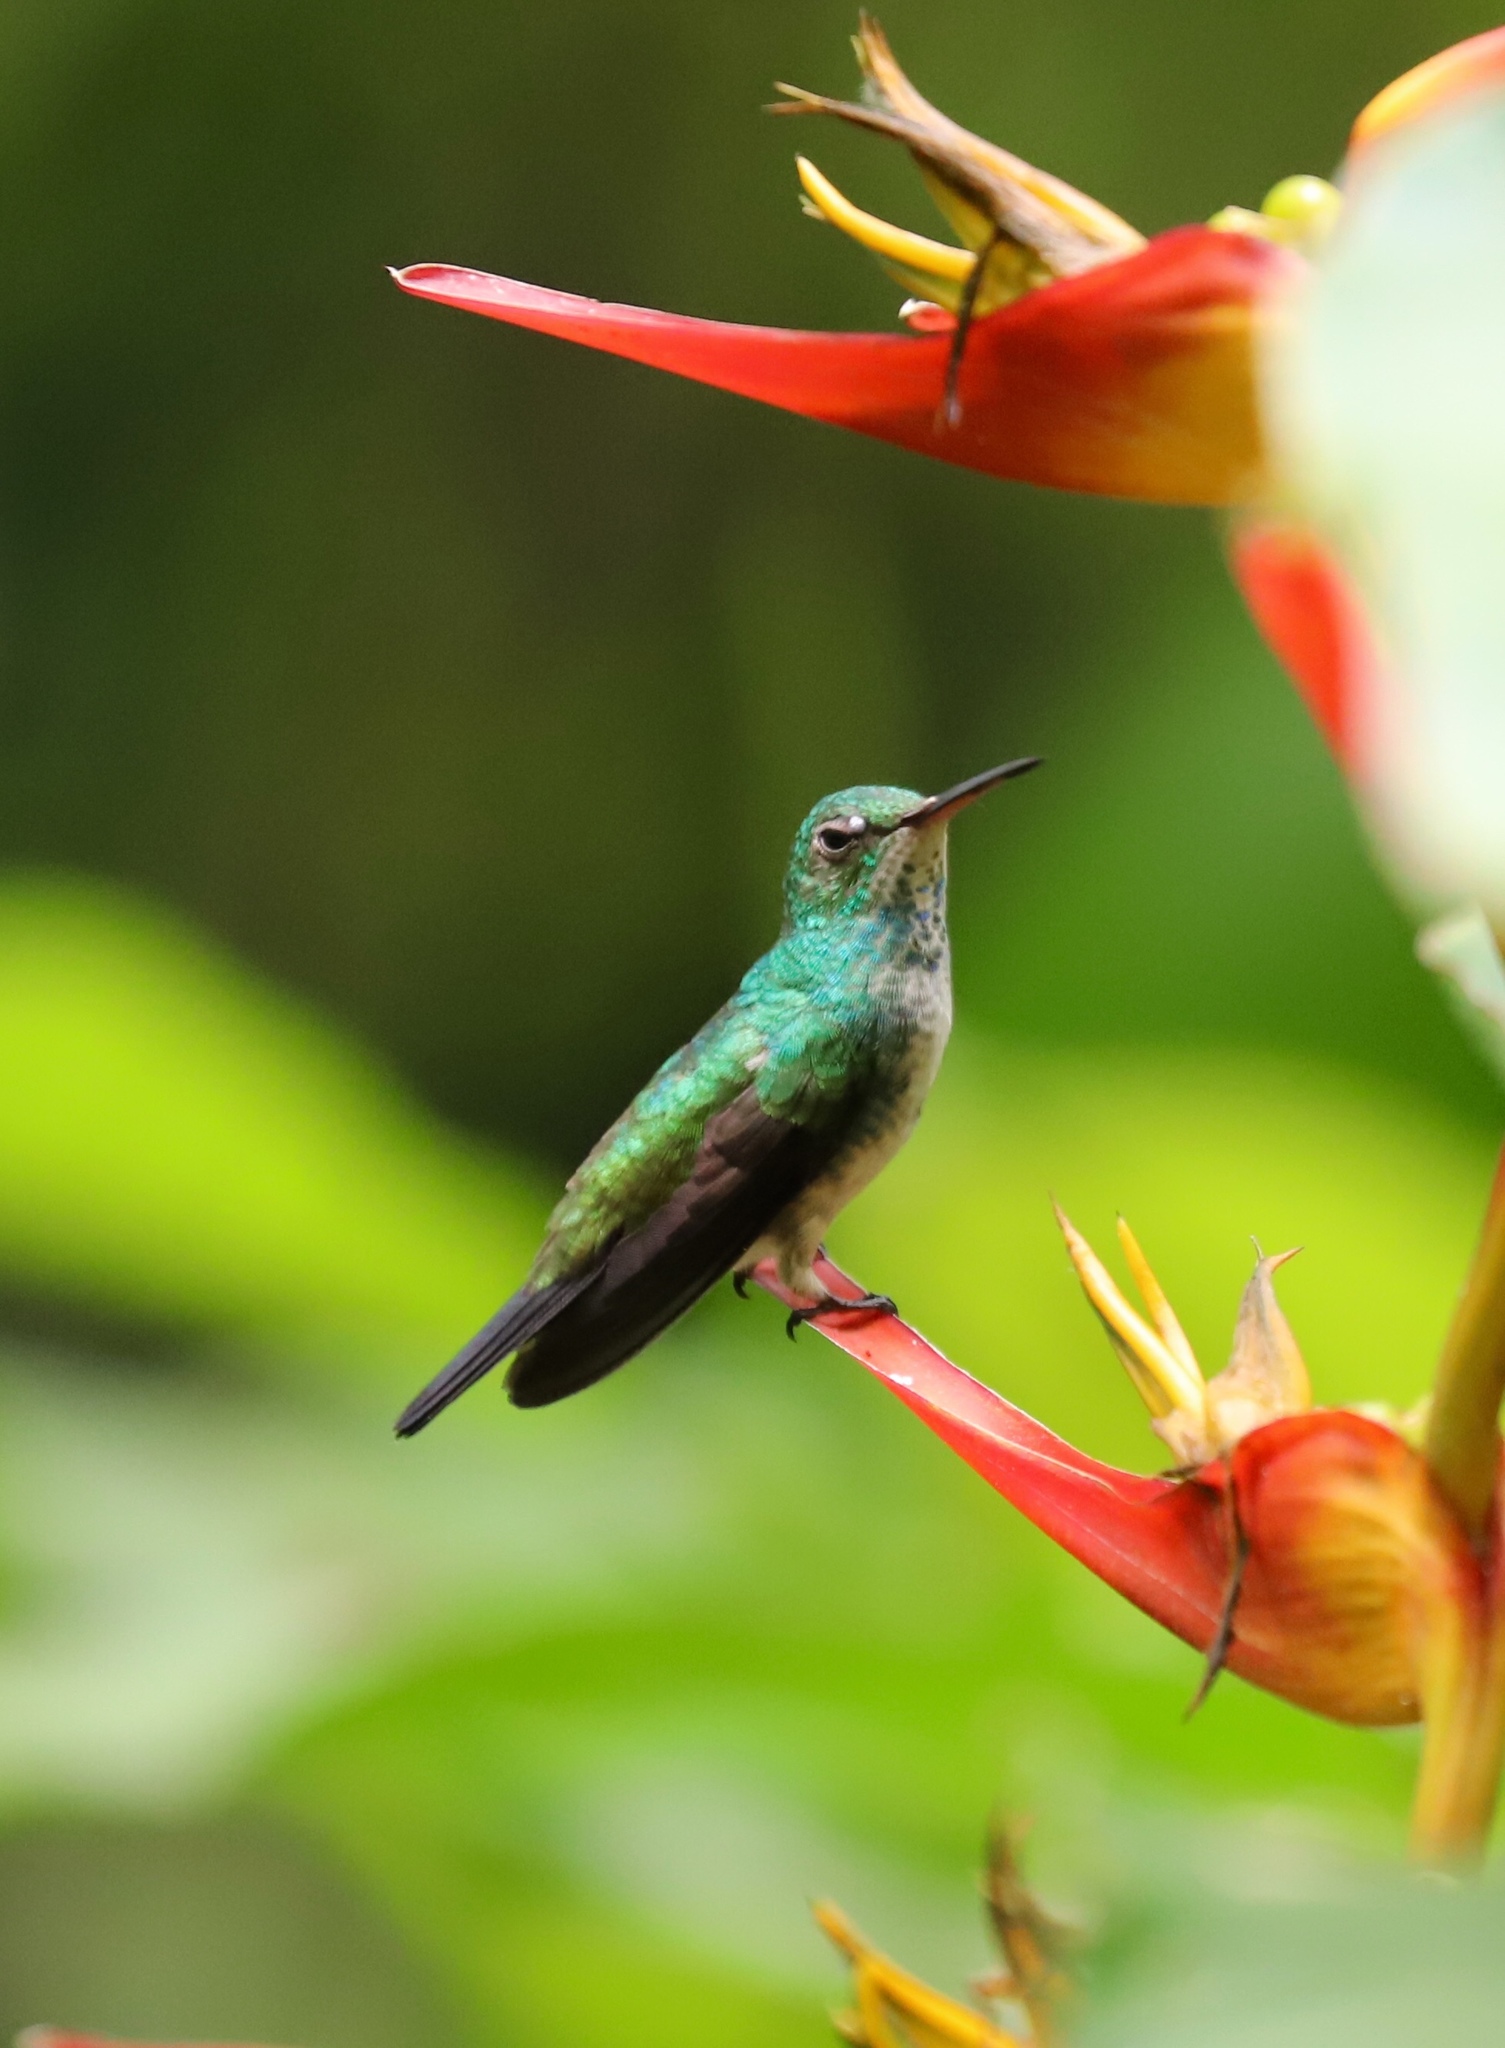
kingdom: Animalia
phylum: Chordata
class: Aves
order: Apodiformes
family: Trochilidae
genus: Polyerata
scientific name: Polyerata amabilis
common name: Blue-chested hummingbird
